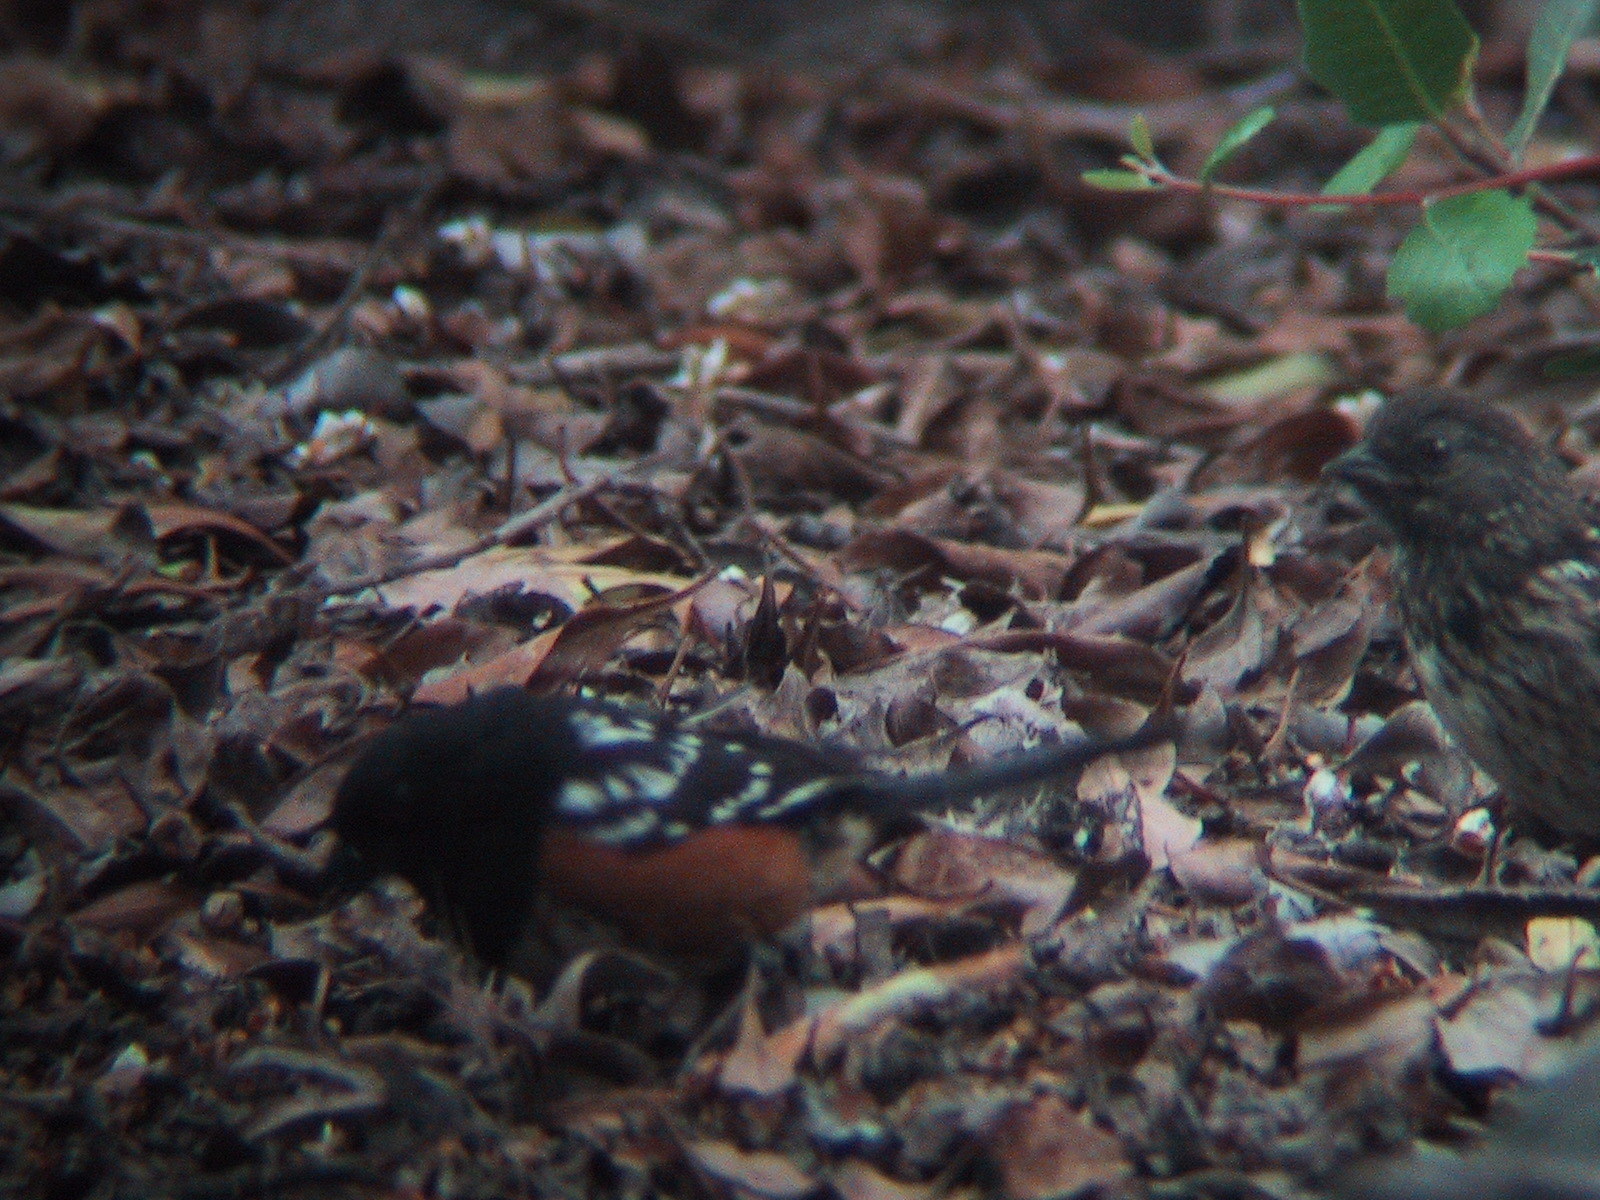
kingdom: Animalia
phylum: Chordata
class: Aves
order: Passeriformes
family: Passerellidae
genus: Pipilo
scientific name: Pipilo maculatus
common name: Spotted towhee
